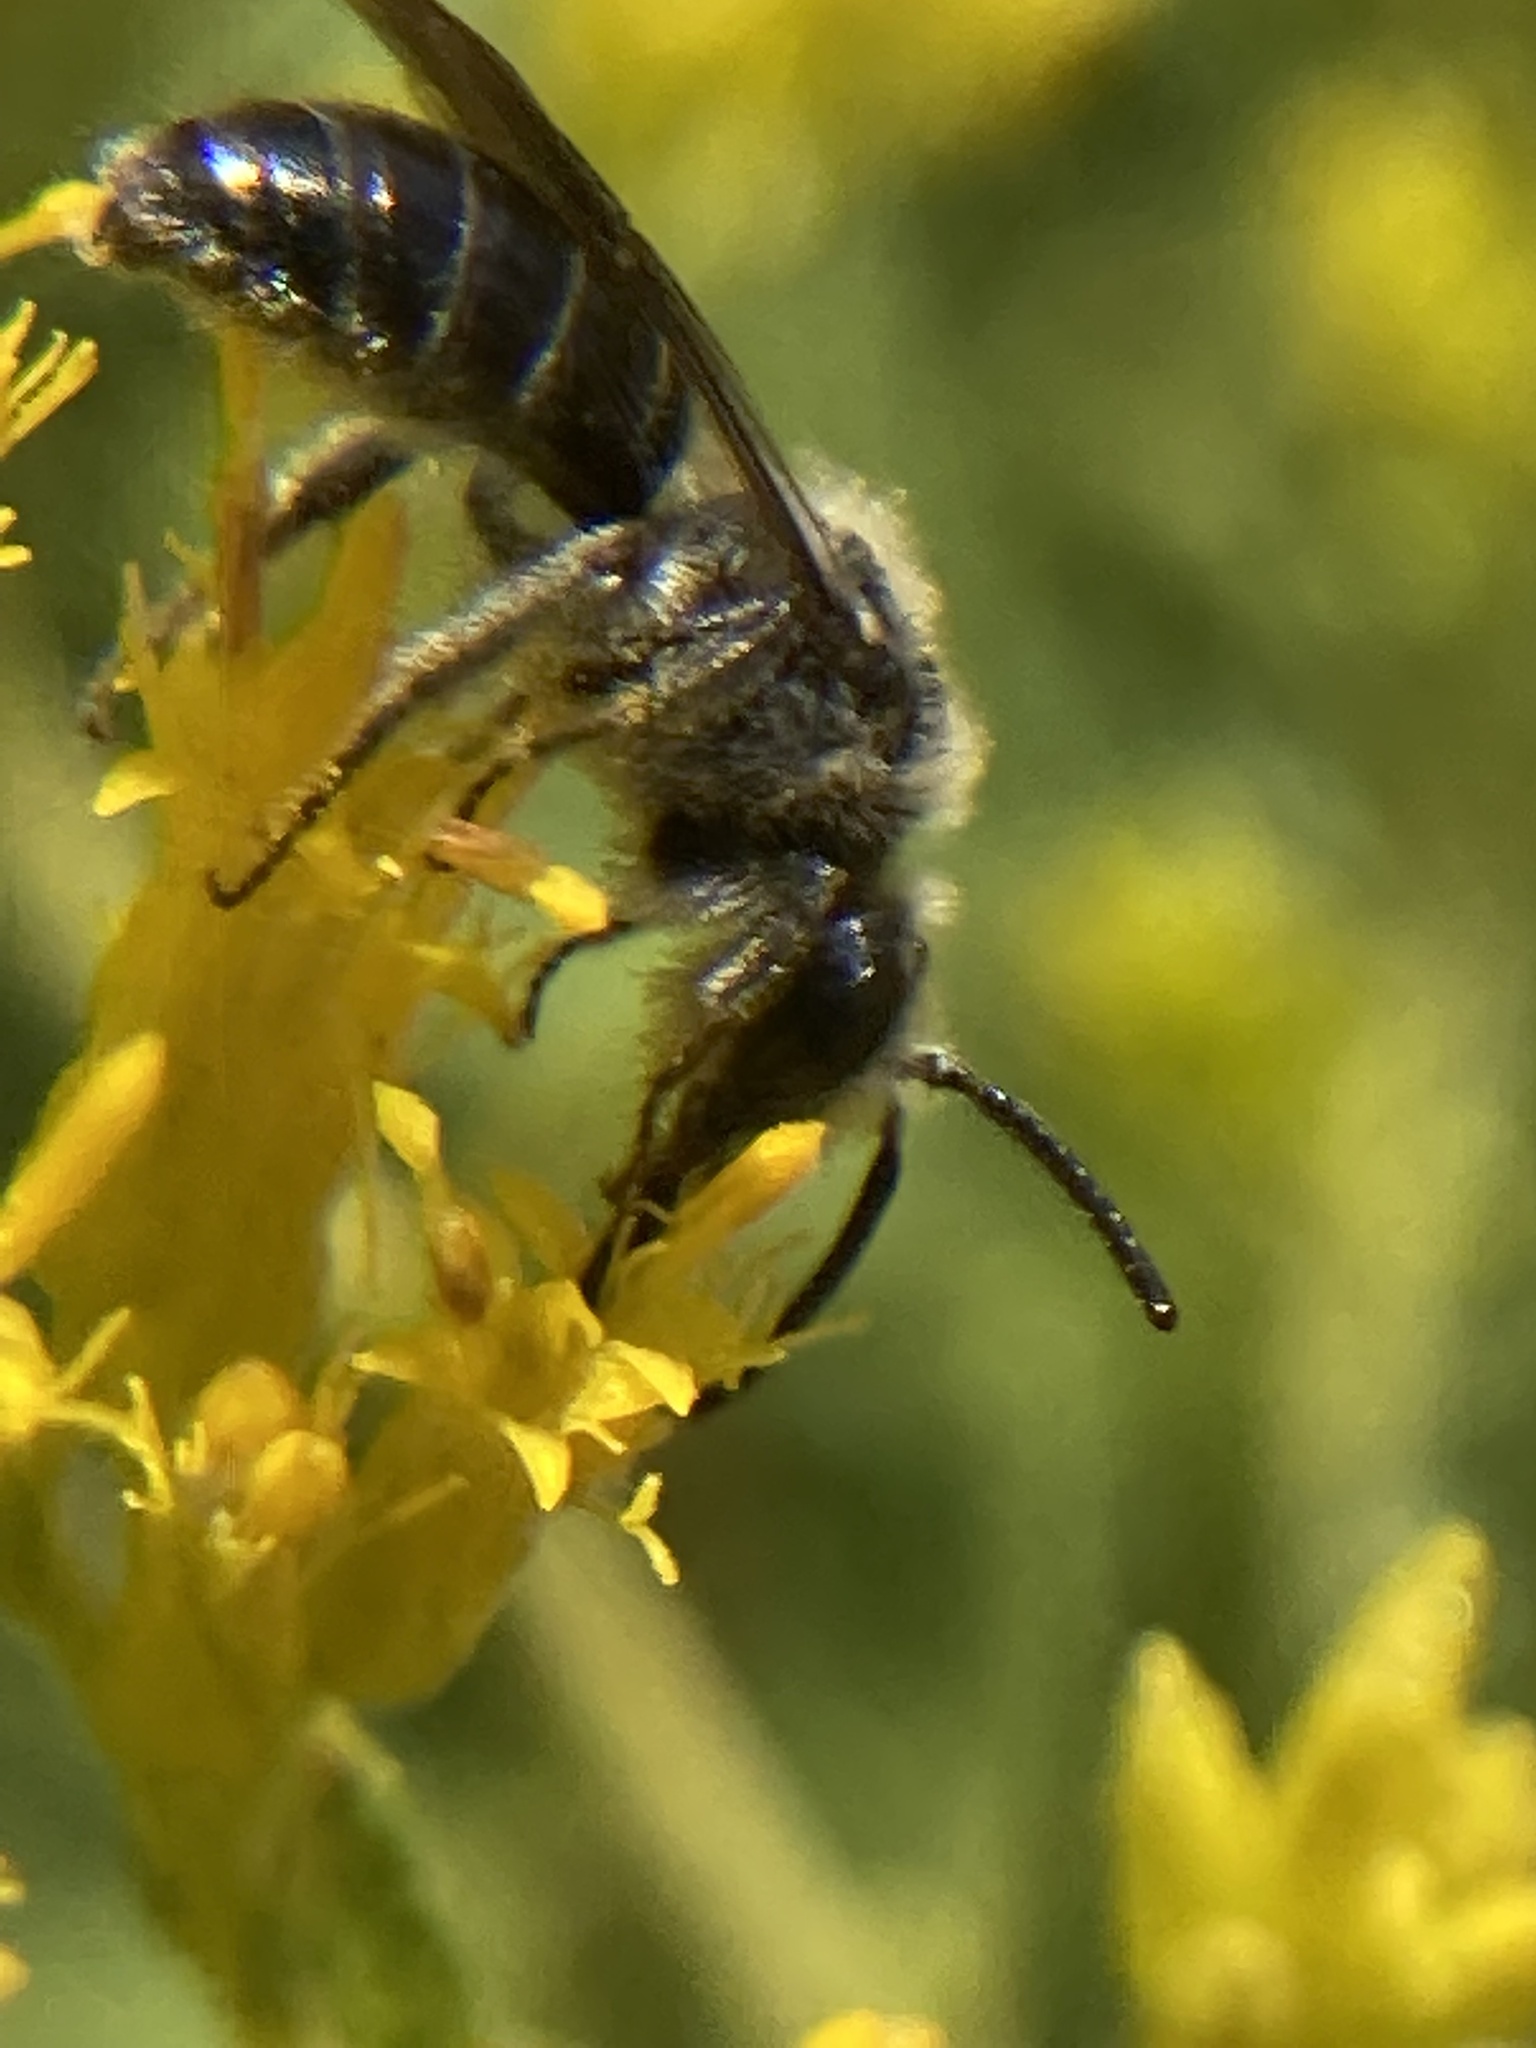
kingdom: Animalia
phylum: Arthropoda
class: Insecta
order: Hymenoptera
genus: Callandrena
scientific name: Callandrena
